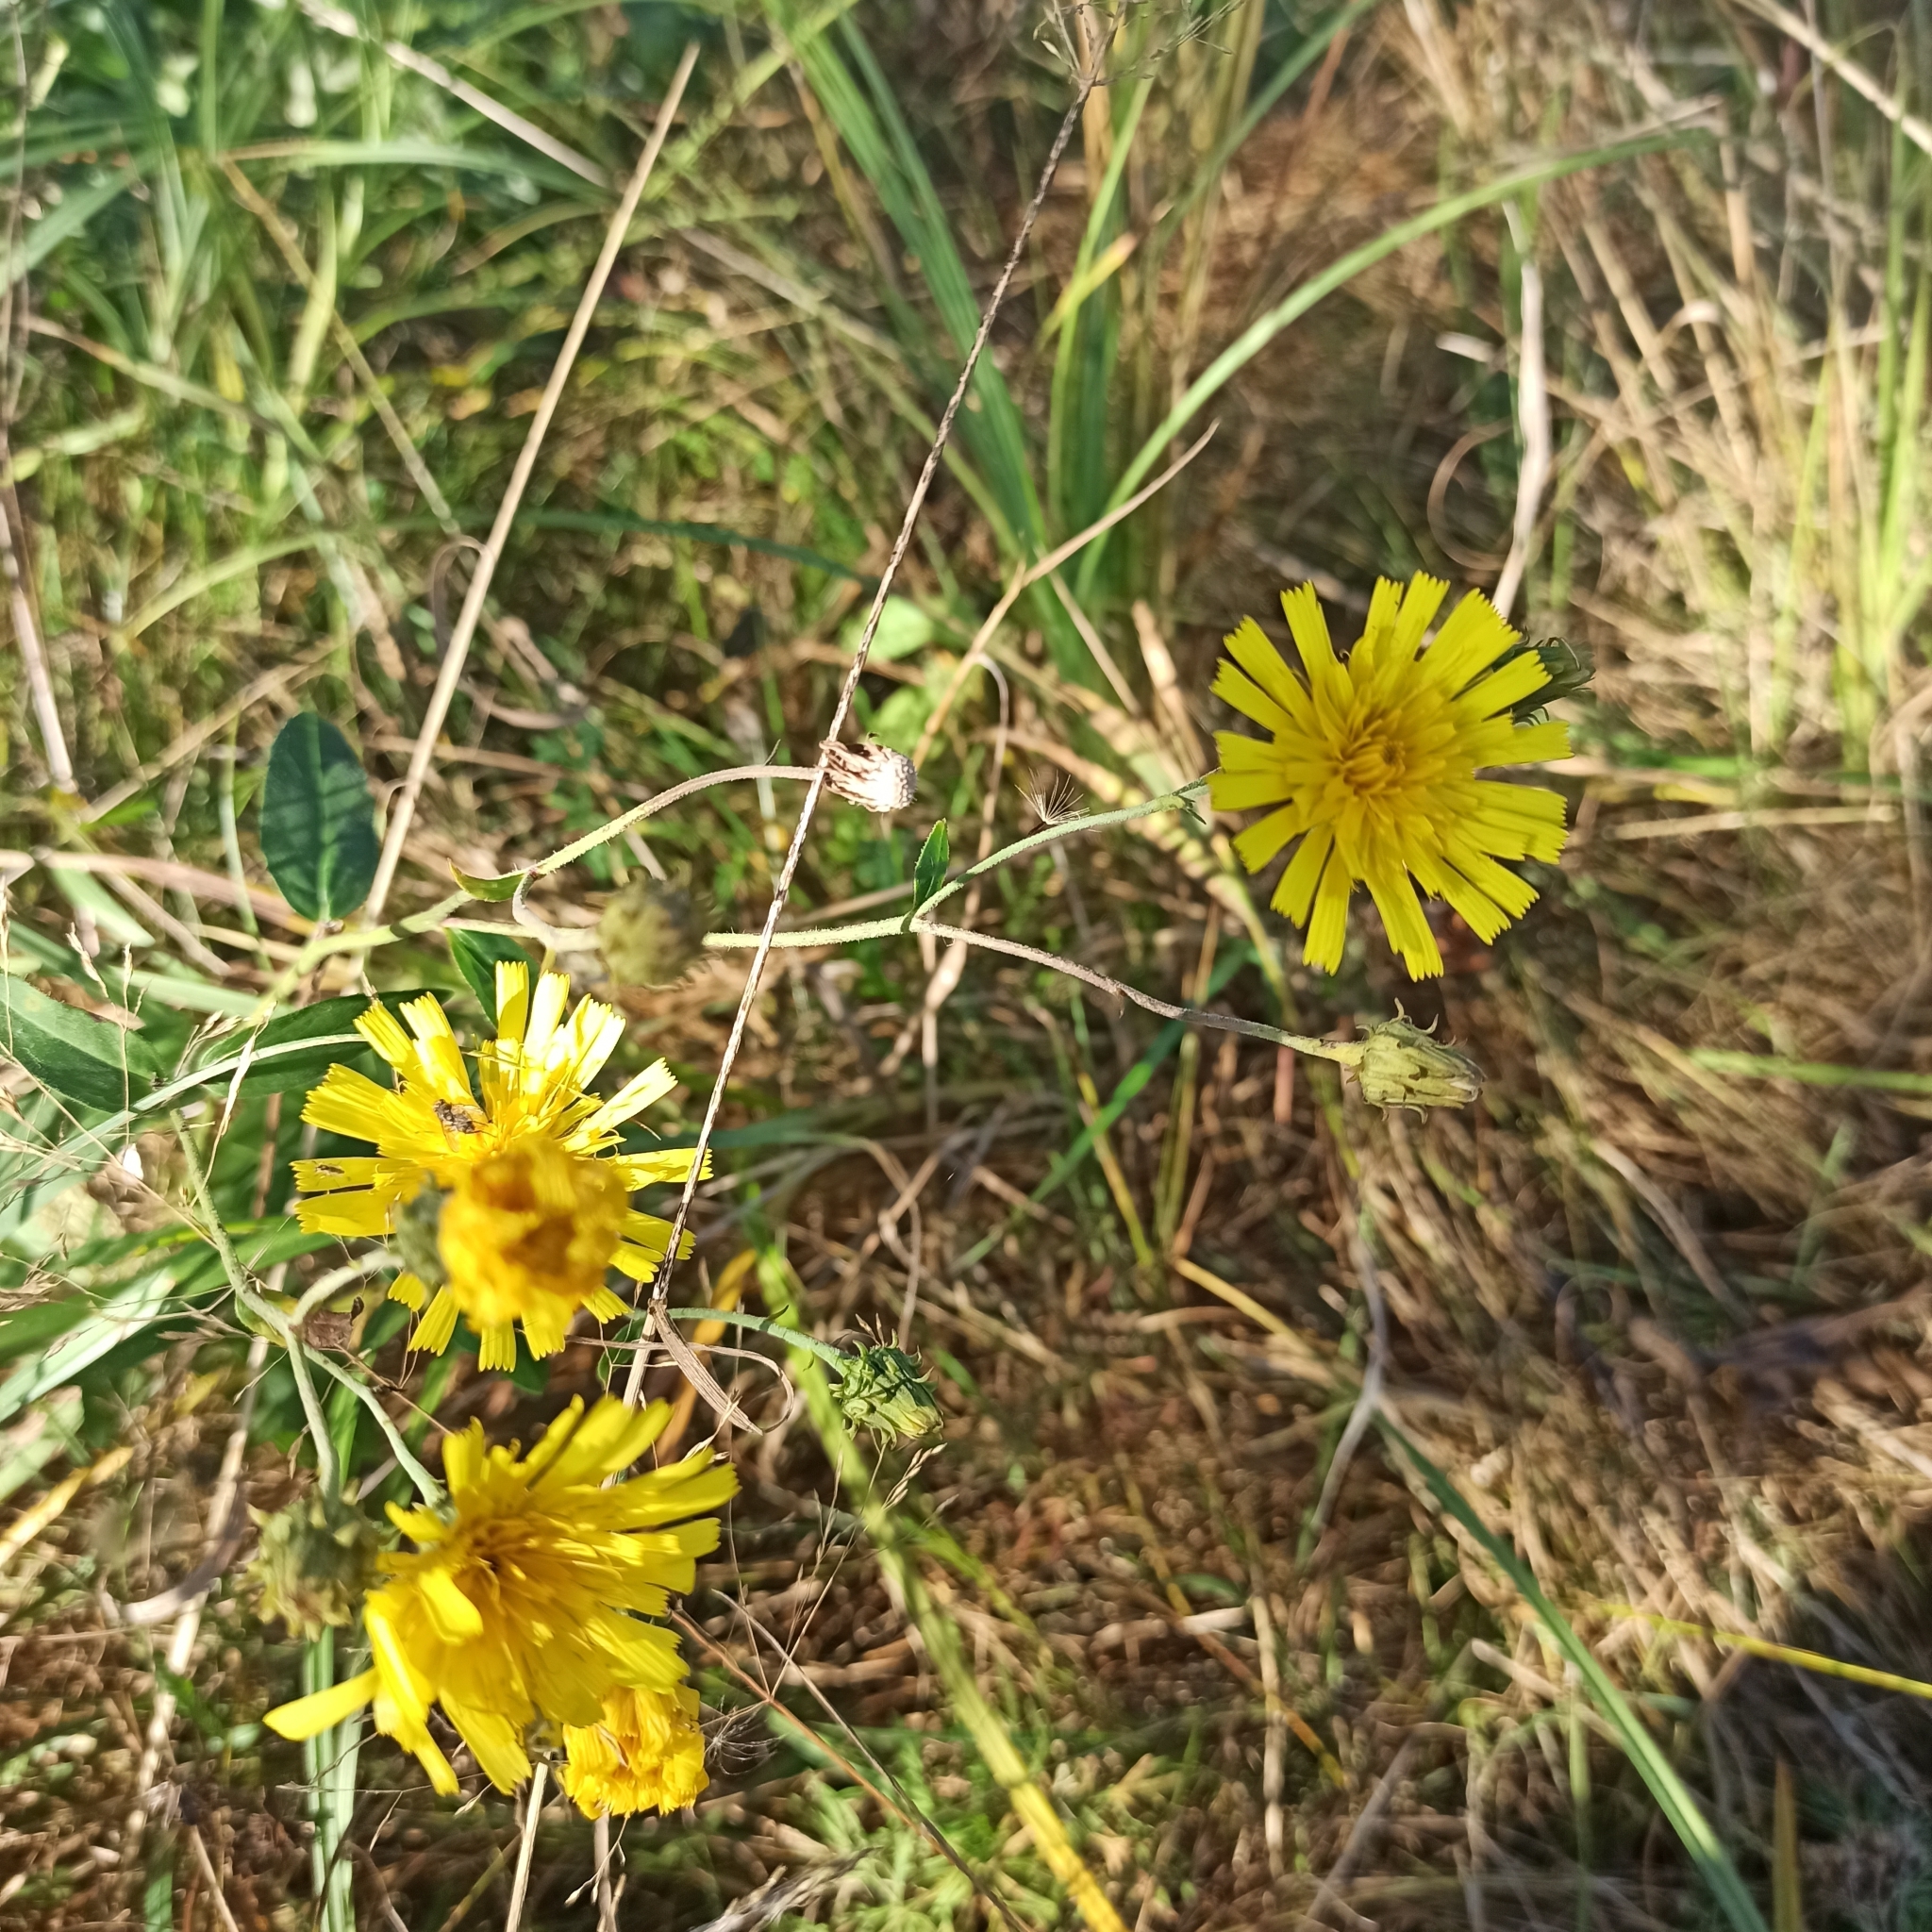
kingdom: Plantae
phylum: Tracheophyta
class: Magnoliopsida
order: Asterales
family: Asteraceae
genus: Hieracium
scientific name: Hieracium umbellatum
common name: Northern hawkweed
